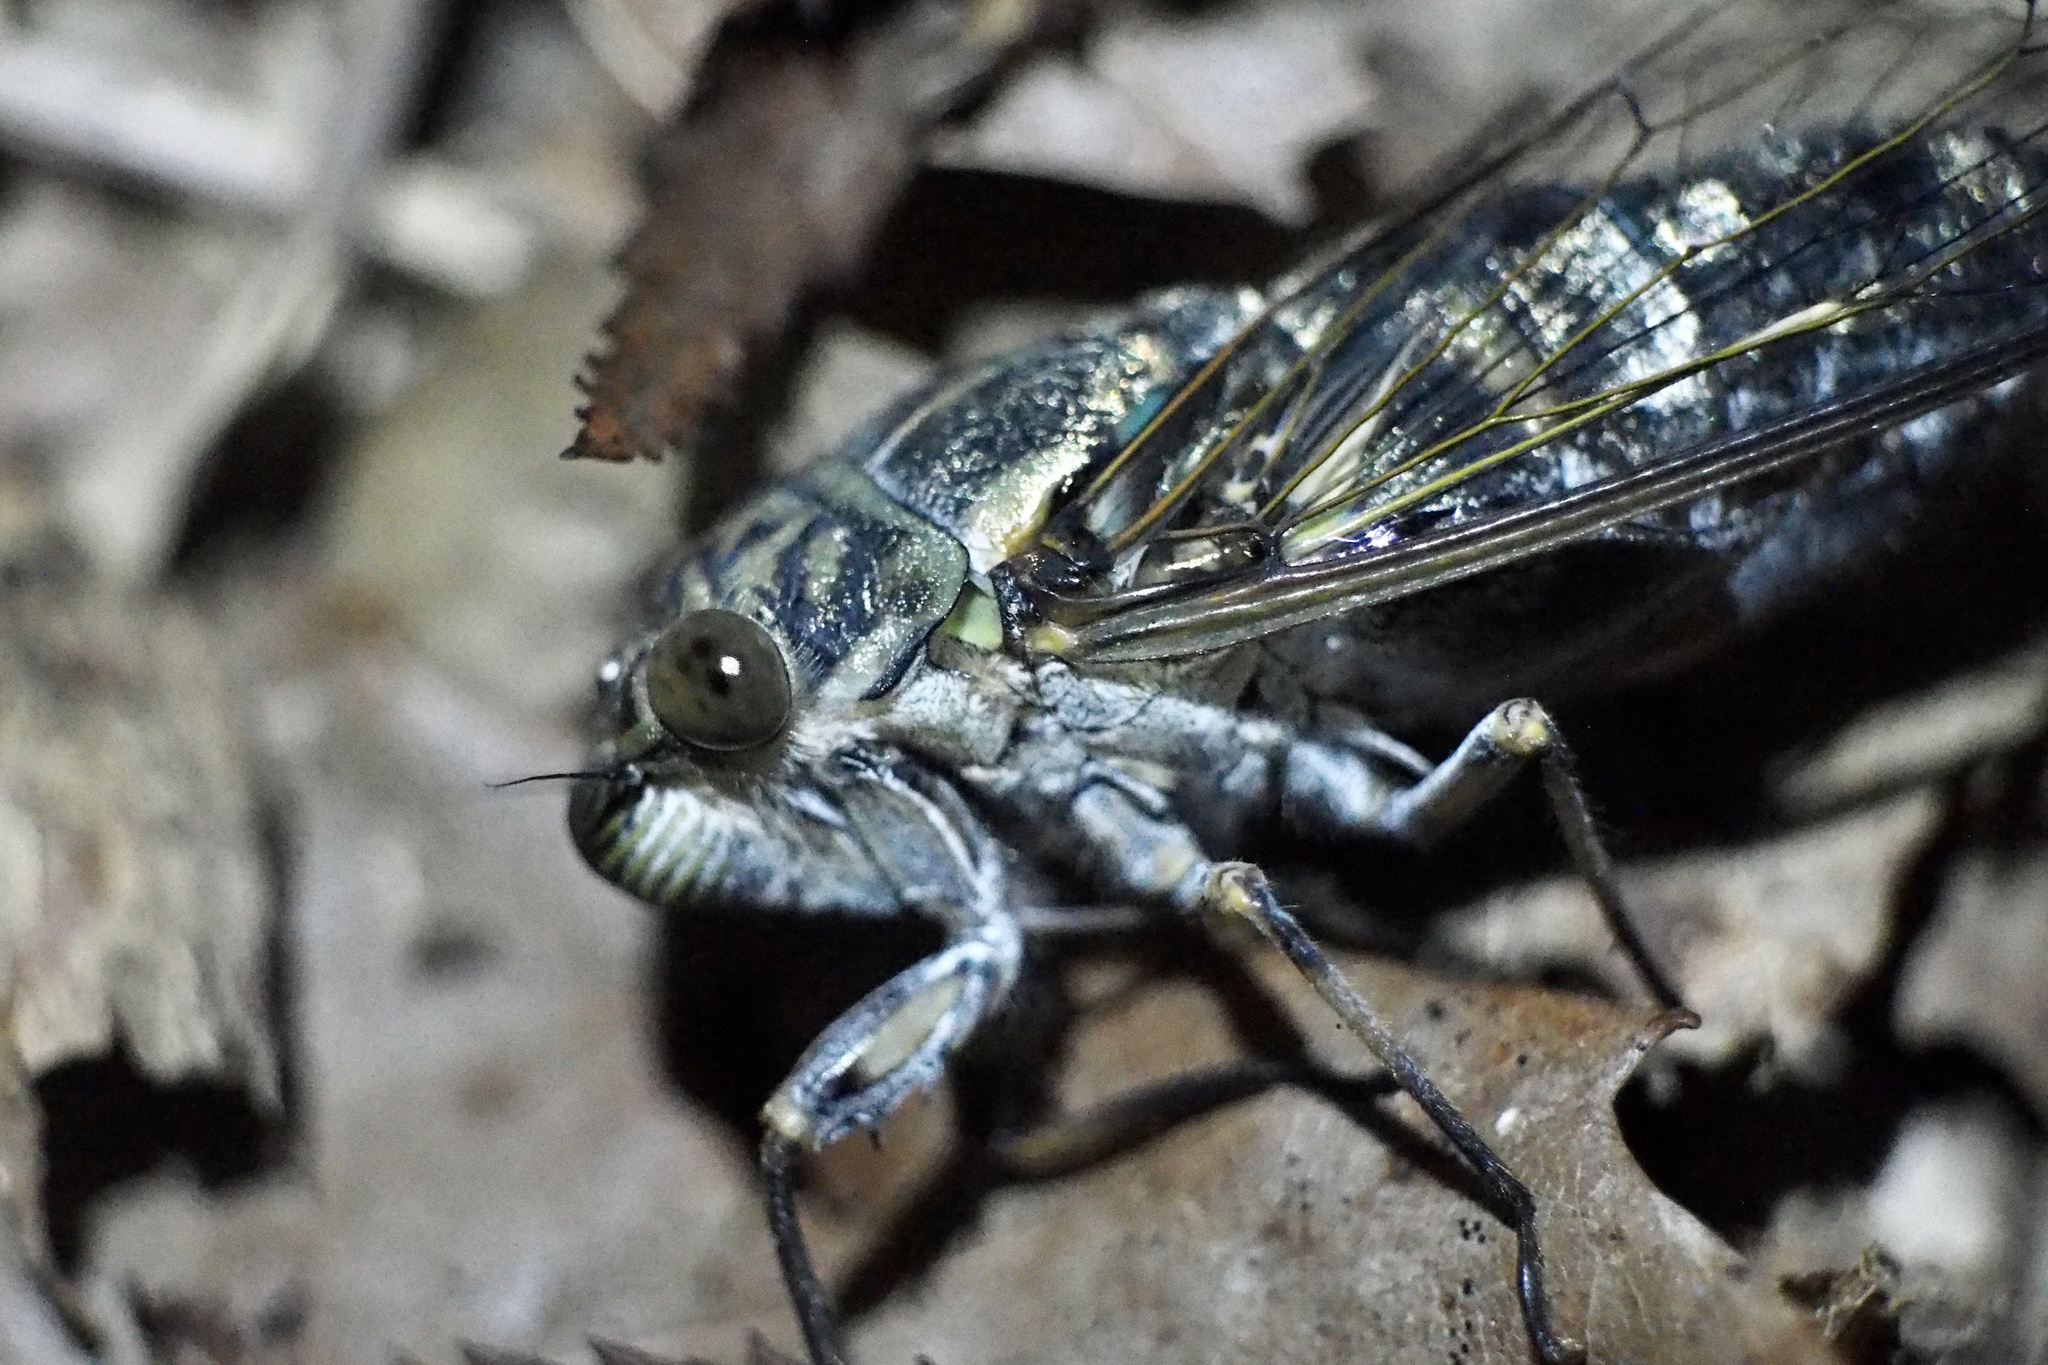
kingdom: Animalia
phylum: Arthropoda
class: Insecta
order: Hemiptera
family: Cicadidae
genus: Meimuna
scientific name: Meimuna opalifera
